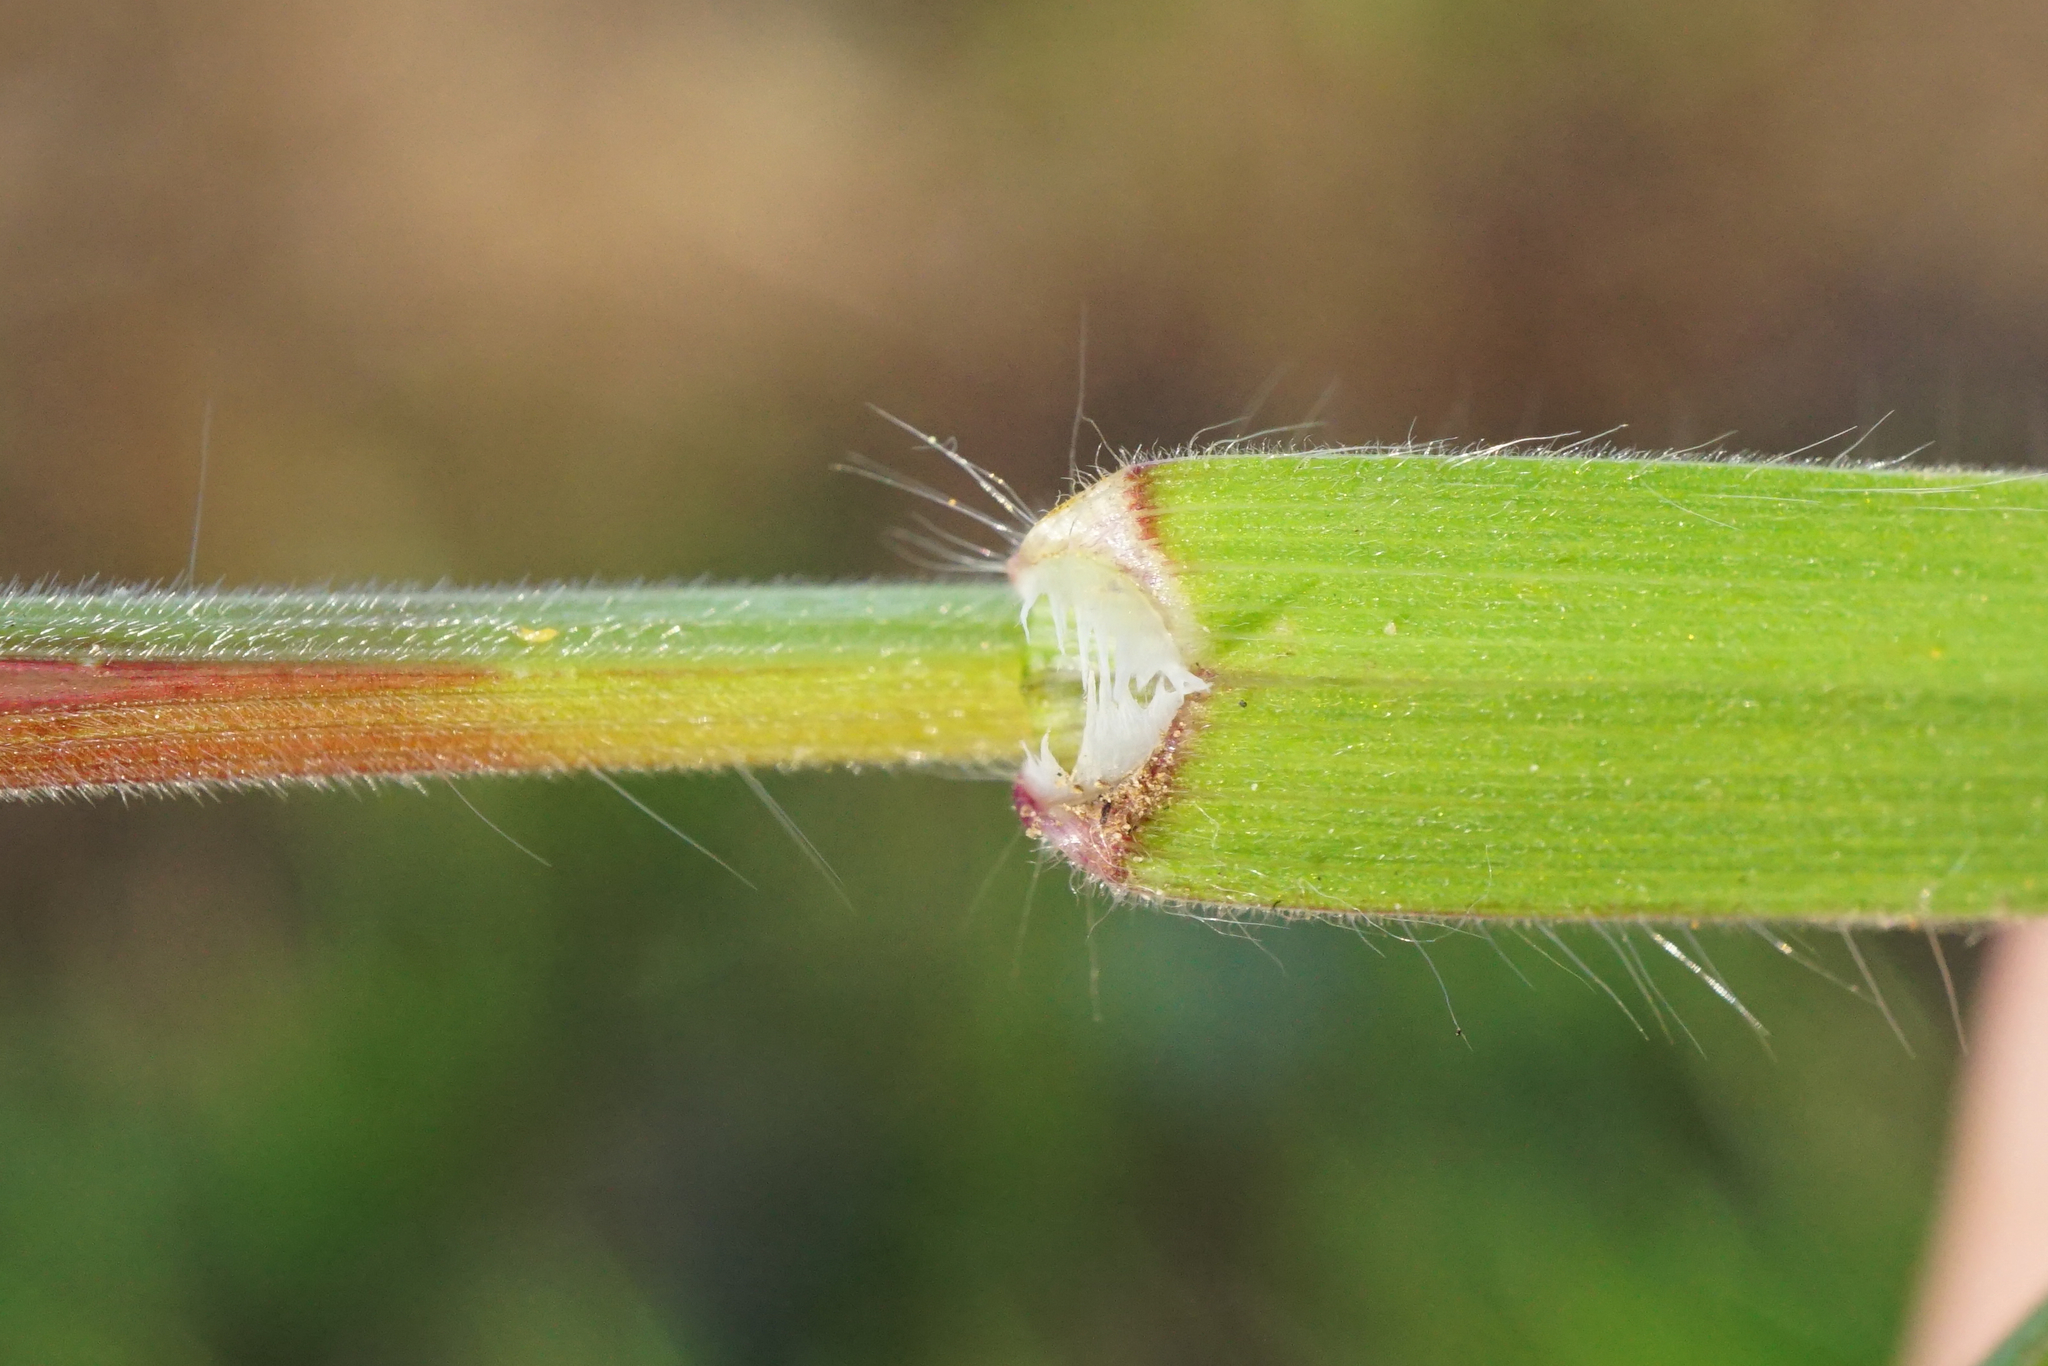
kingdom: Plantae
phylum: Tracheophyta
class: Liliopsida
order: Poales
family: Poaceae
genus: Bromus
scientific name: Bromus tectorum
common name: Cheatgrass
